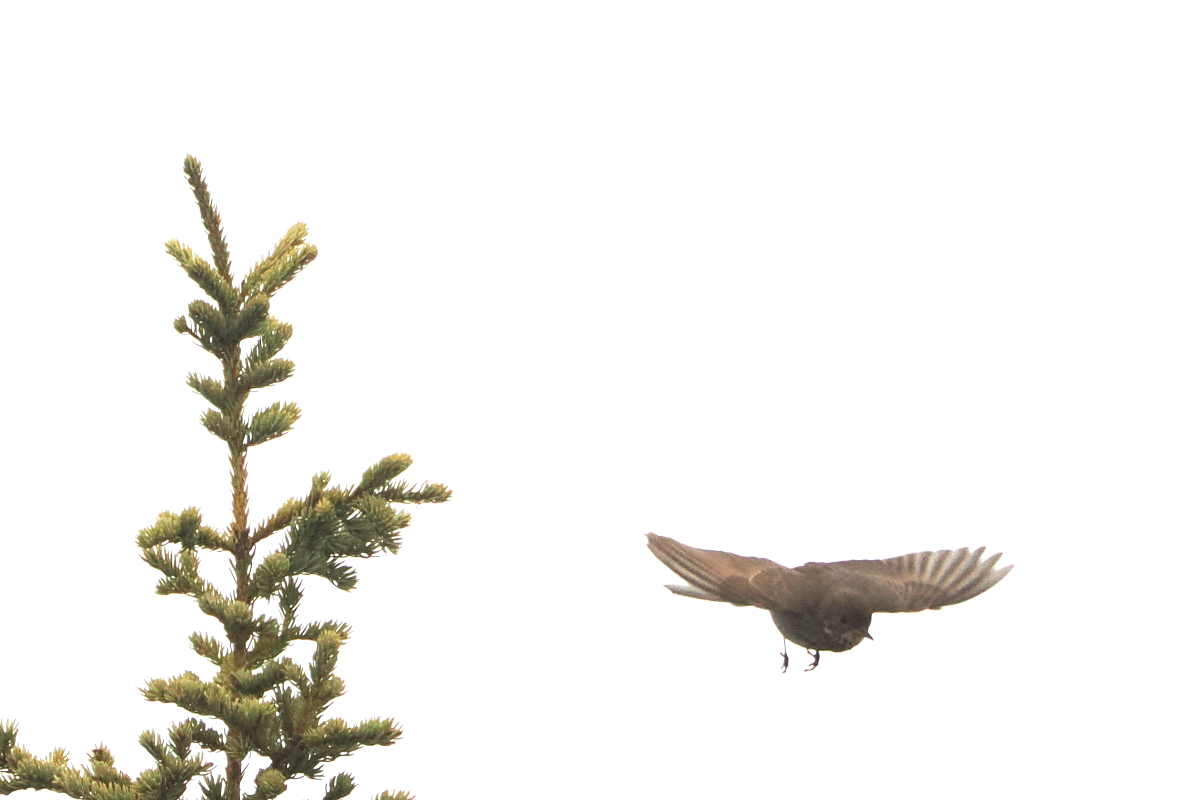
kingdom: Animalia
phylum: Chordata
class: Aves
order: Passeriformes
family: Turdidae
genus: Catharus
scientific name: Catharus minimus
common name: Grey-cheeked thrush
